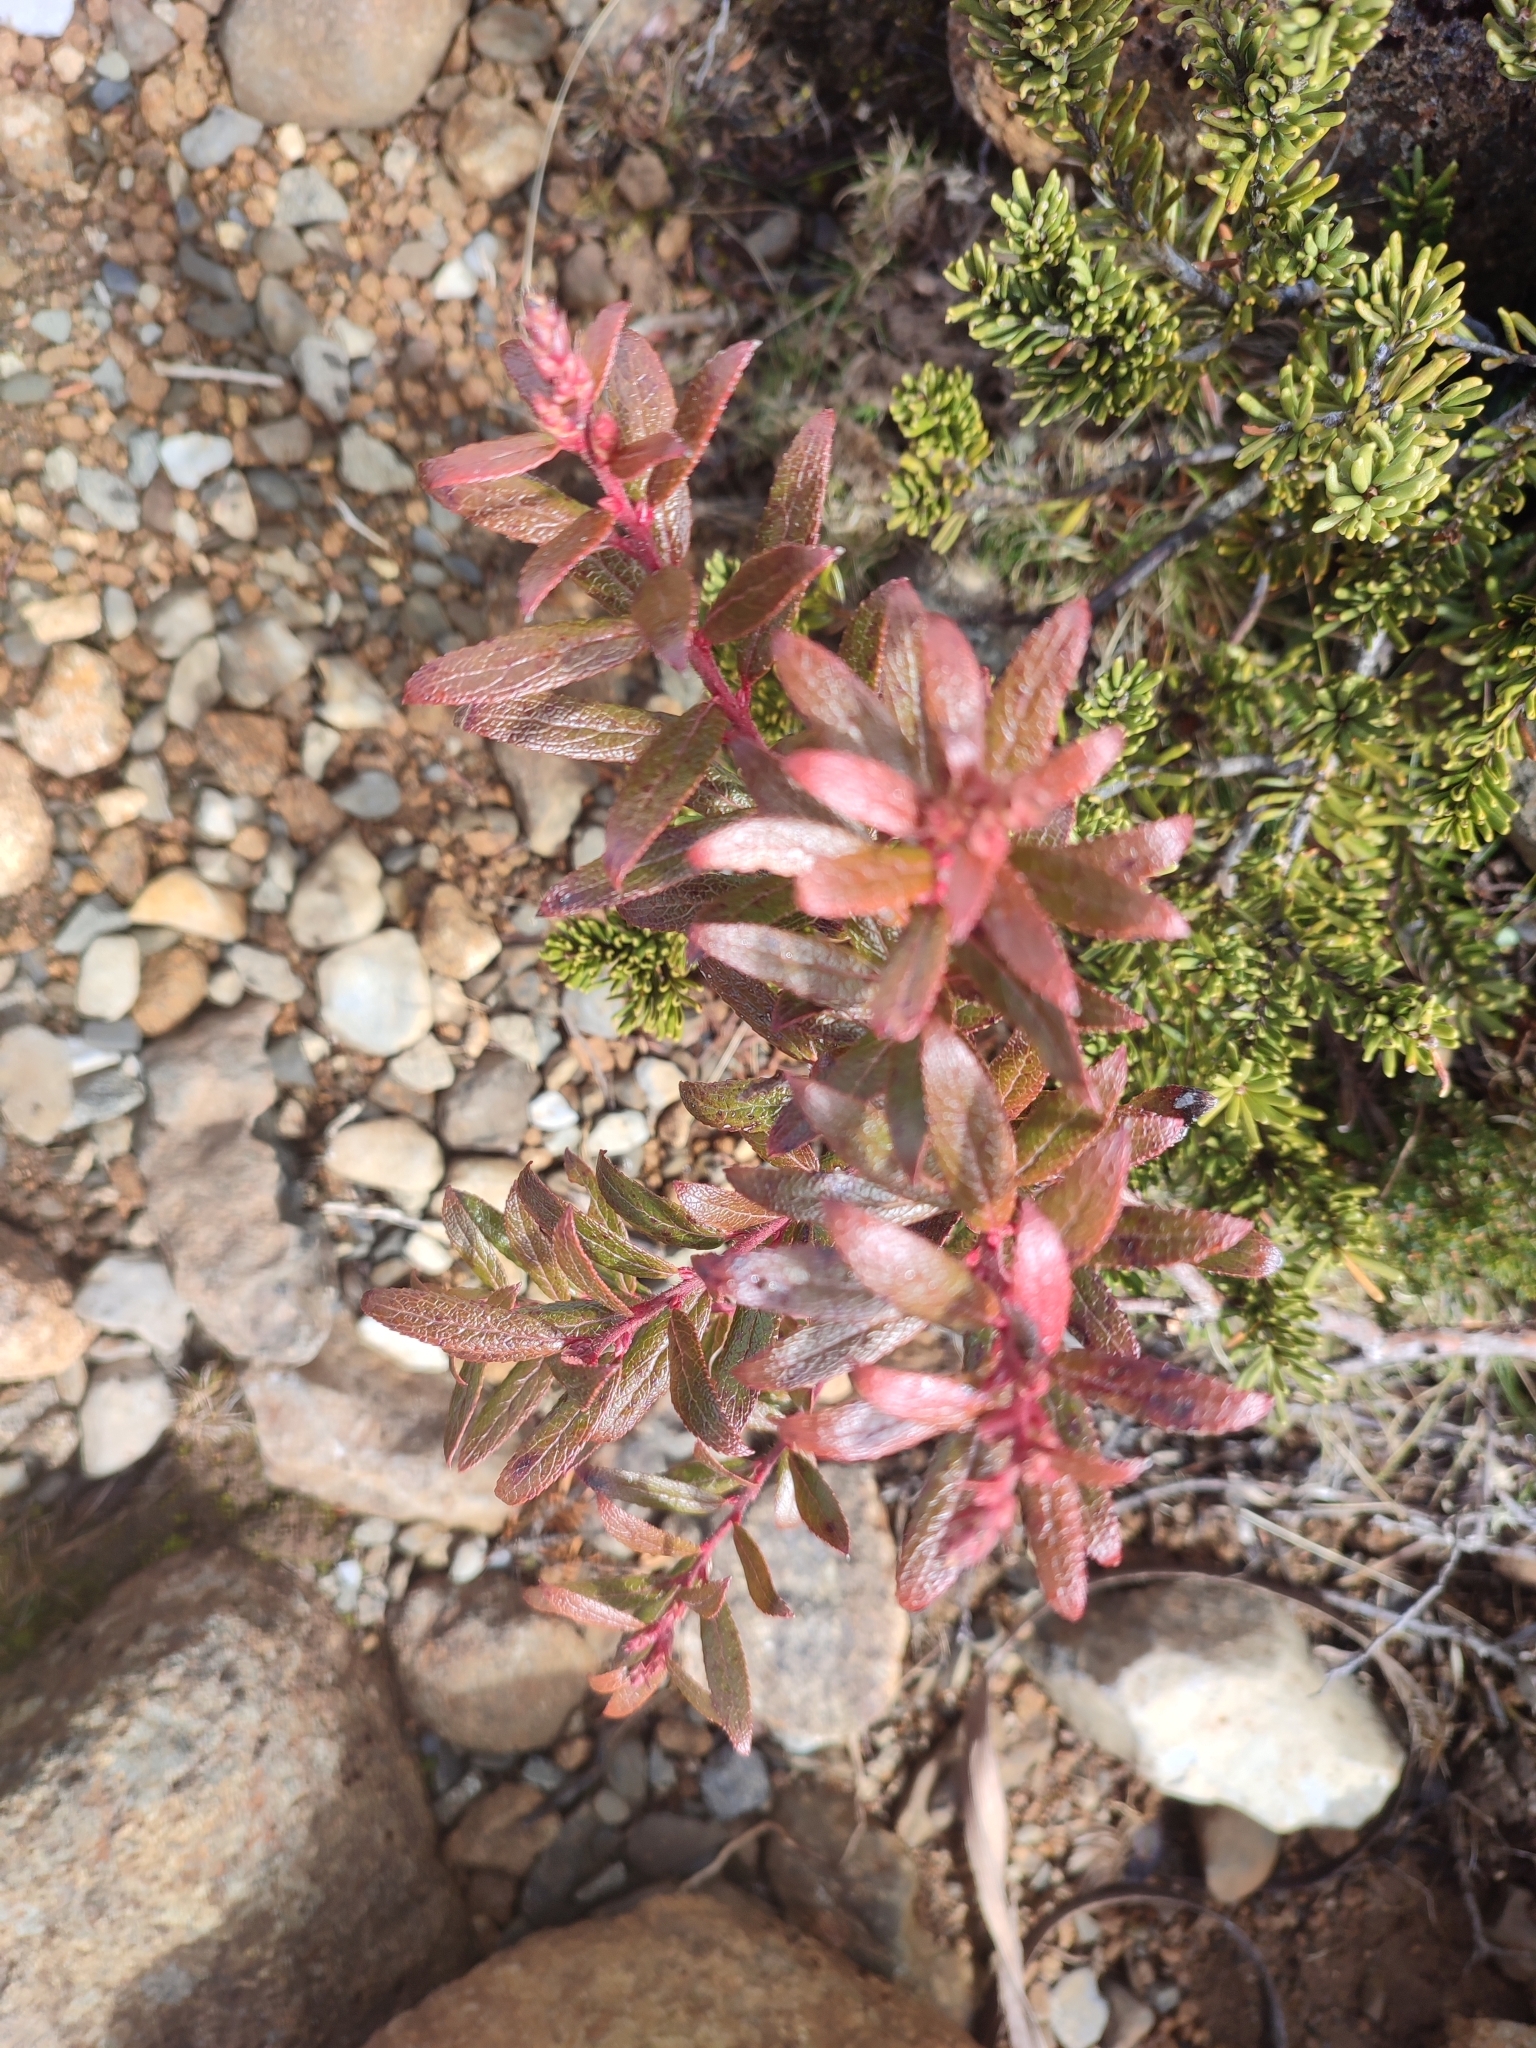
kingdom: Plantae
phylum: Tracheophyta
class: Magnoliopsida
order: Ericales
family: Ericaceae
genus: Gaultheria
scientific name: Gaultheria hispida
